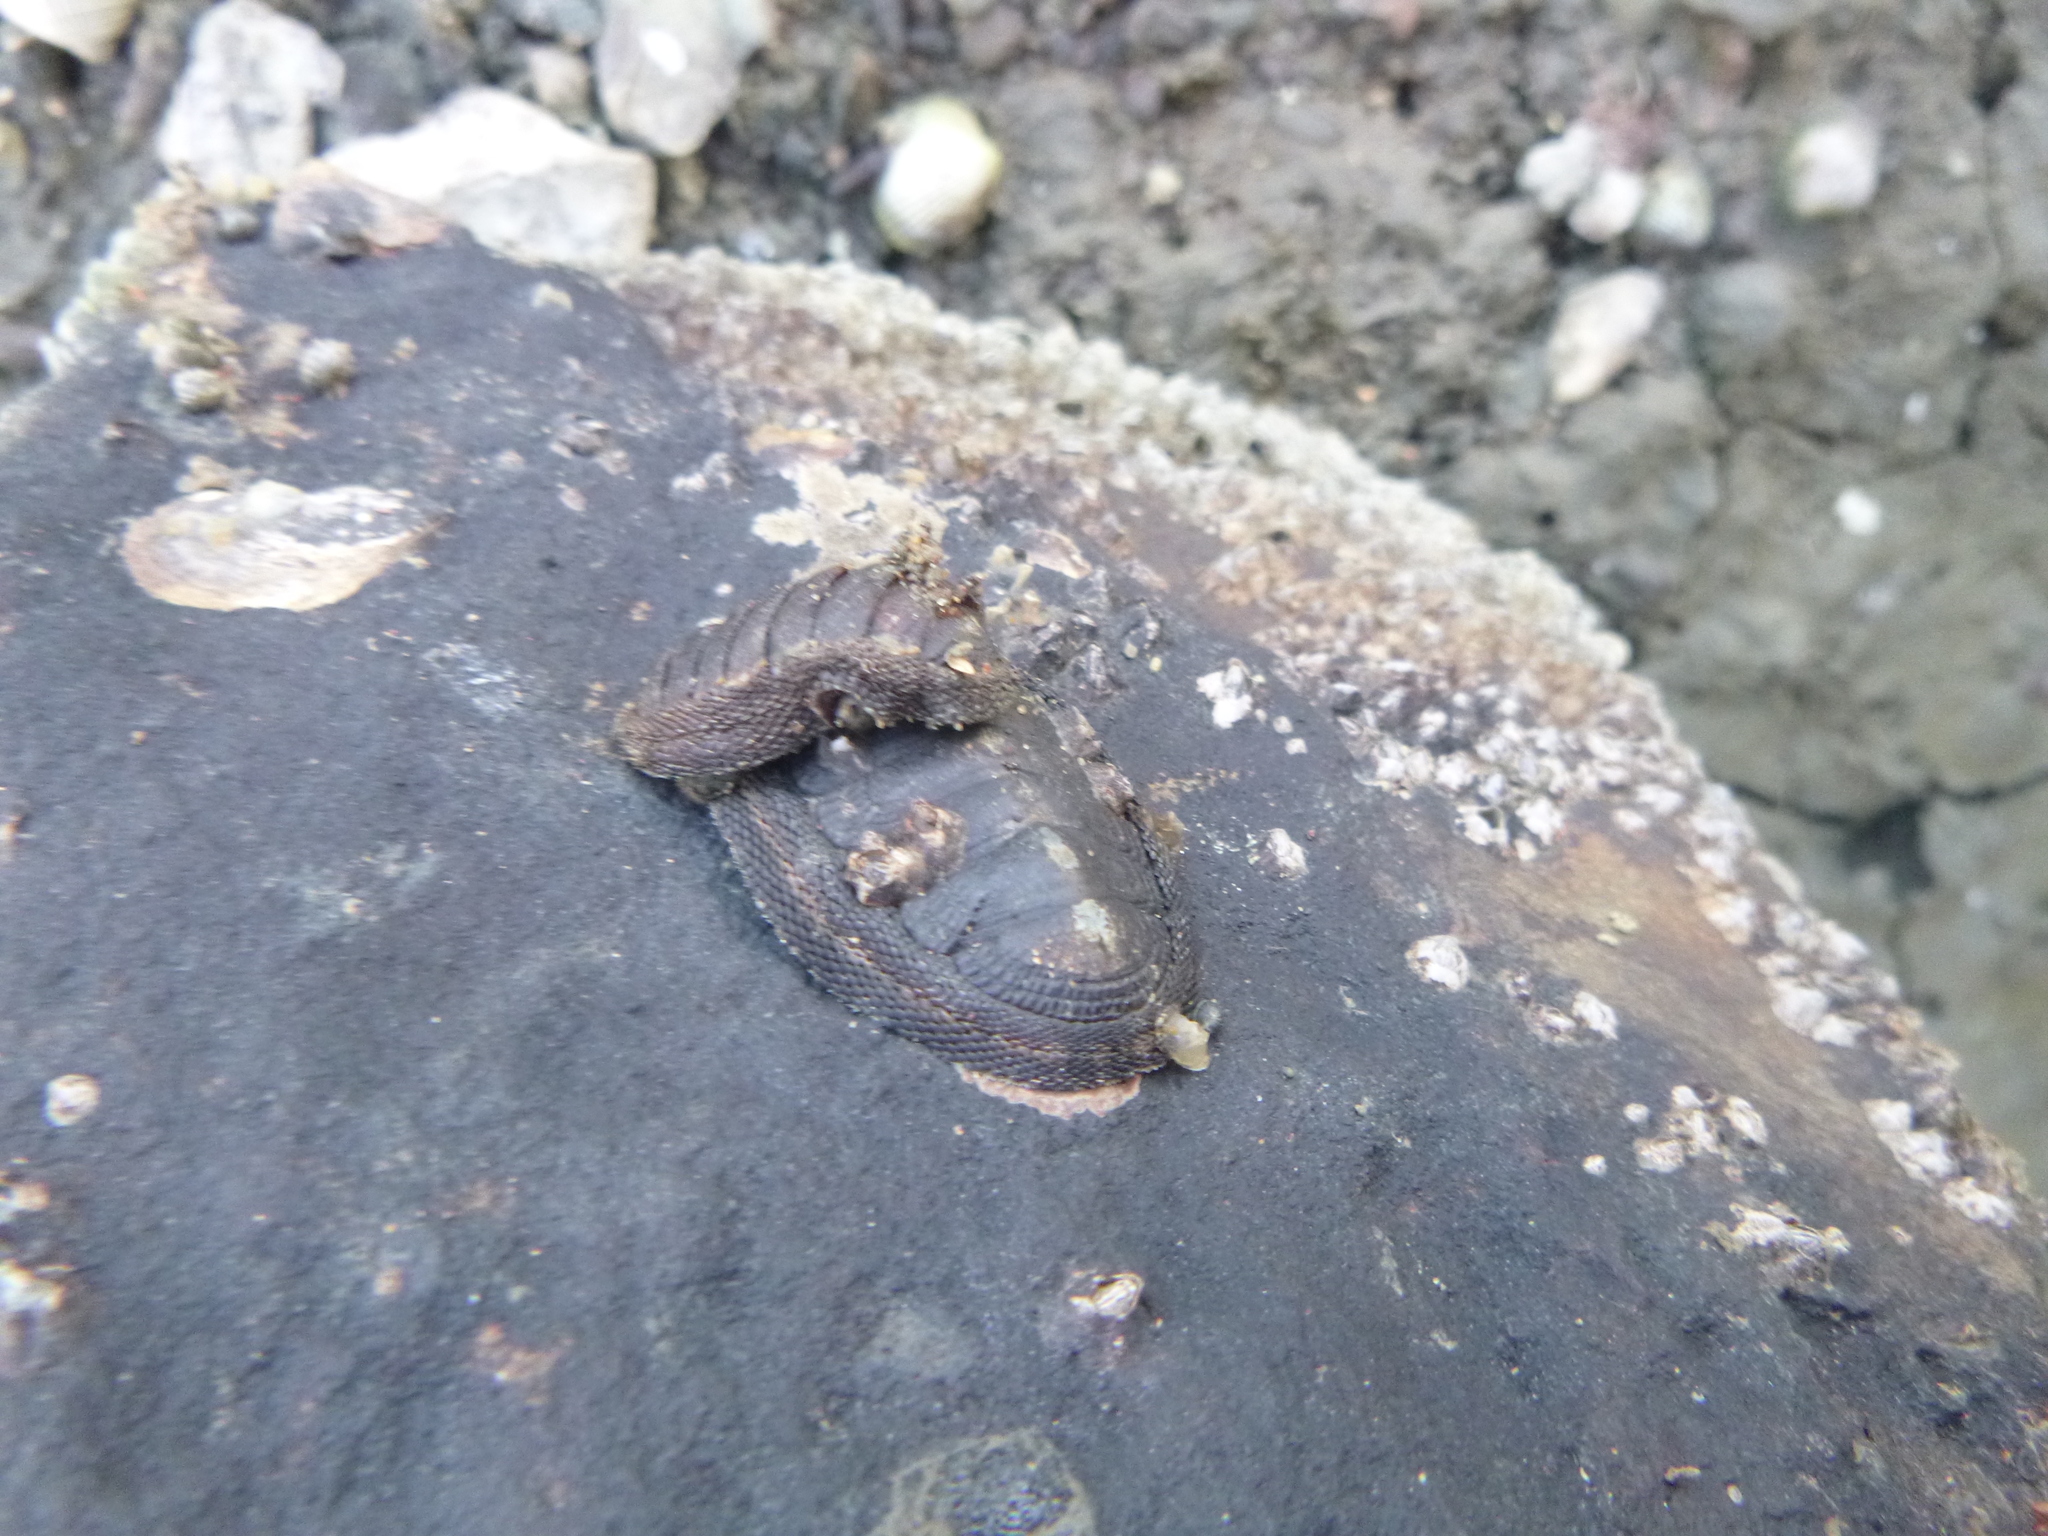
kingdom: Animalia
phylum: Mollusca
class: Polyplacophora
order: Chitonida
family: Chitonidae
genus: Sypharochiton
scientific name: Sypharochiton pelliserpentis
